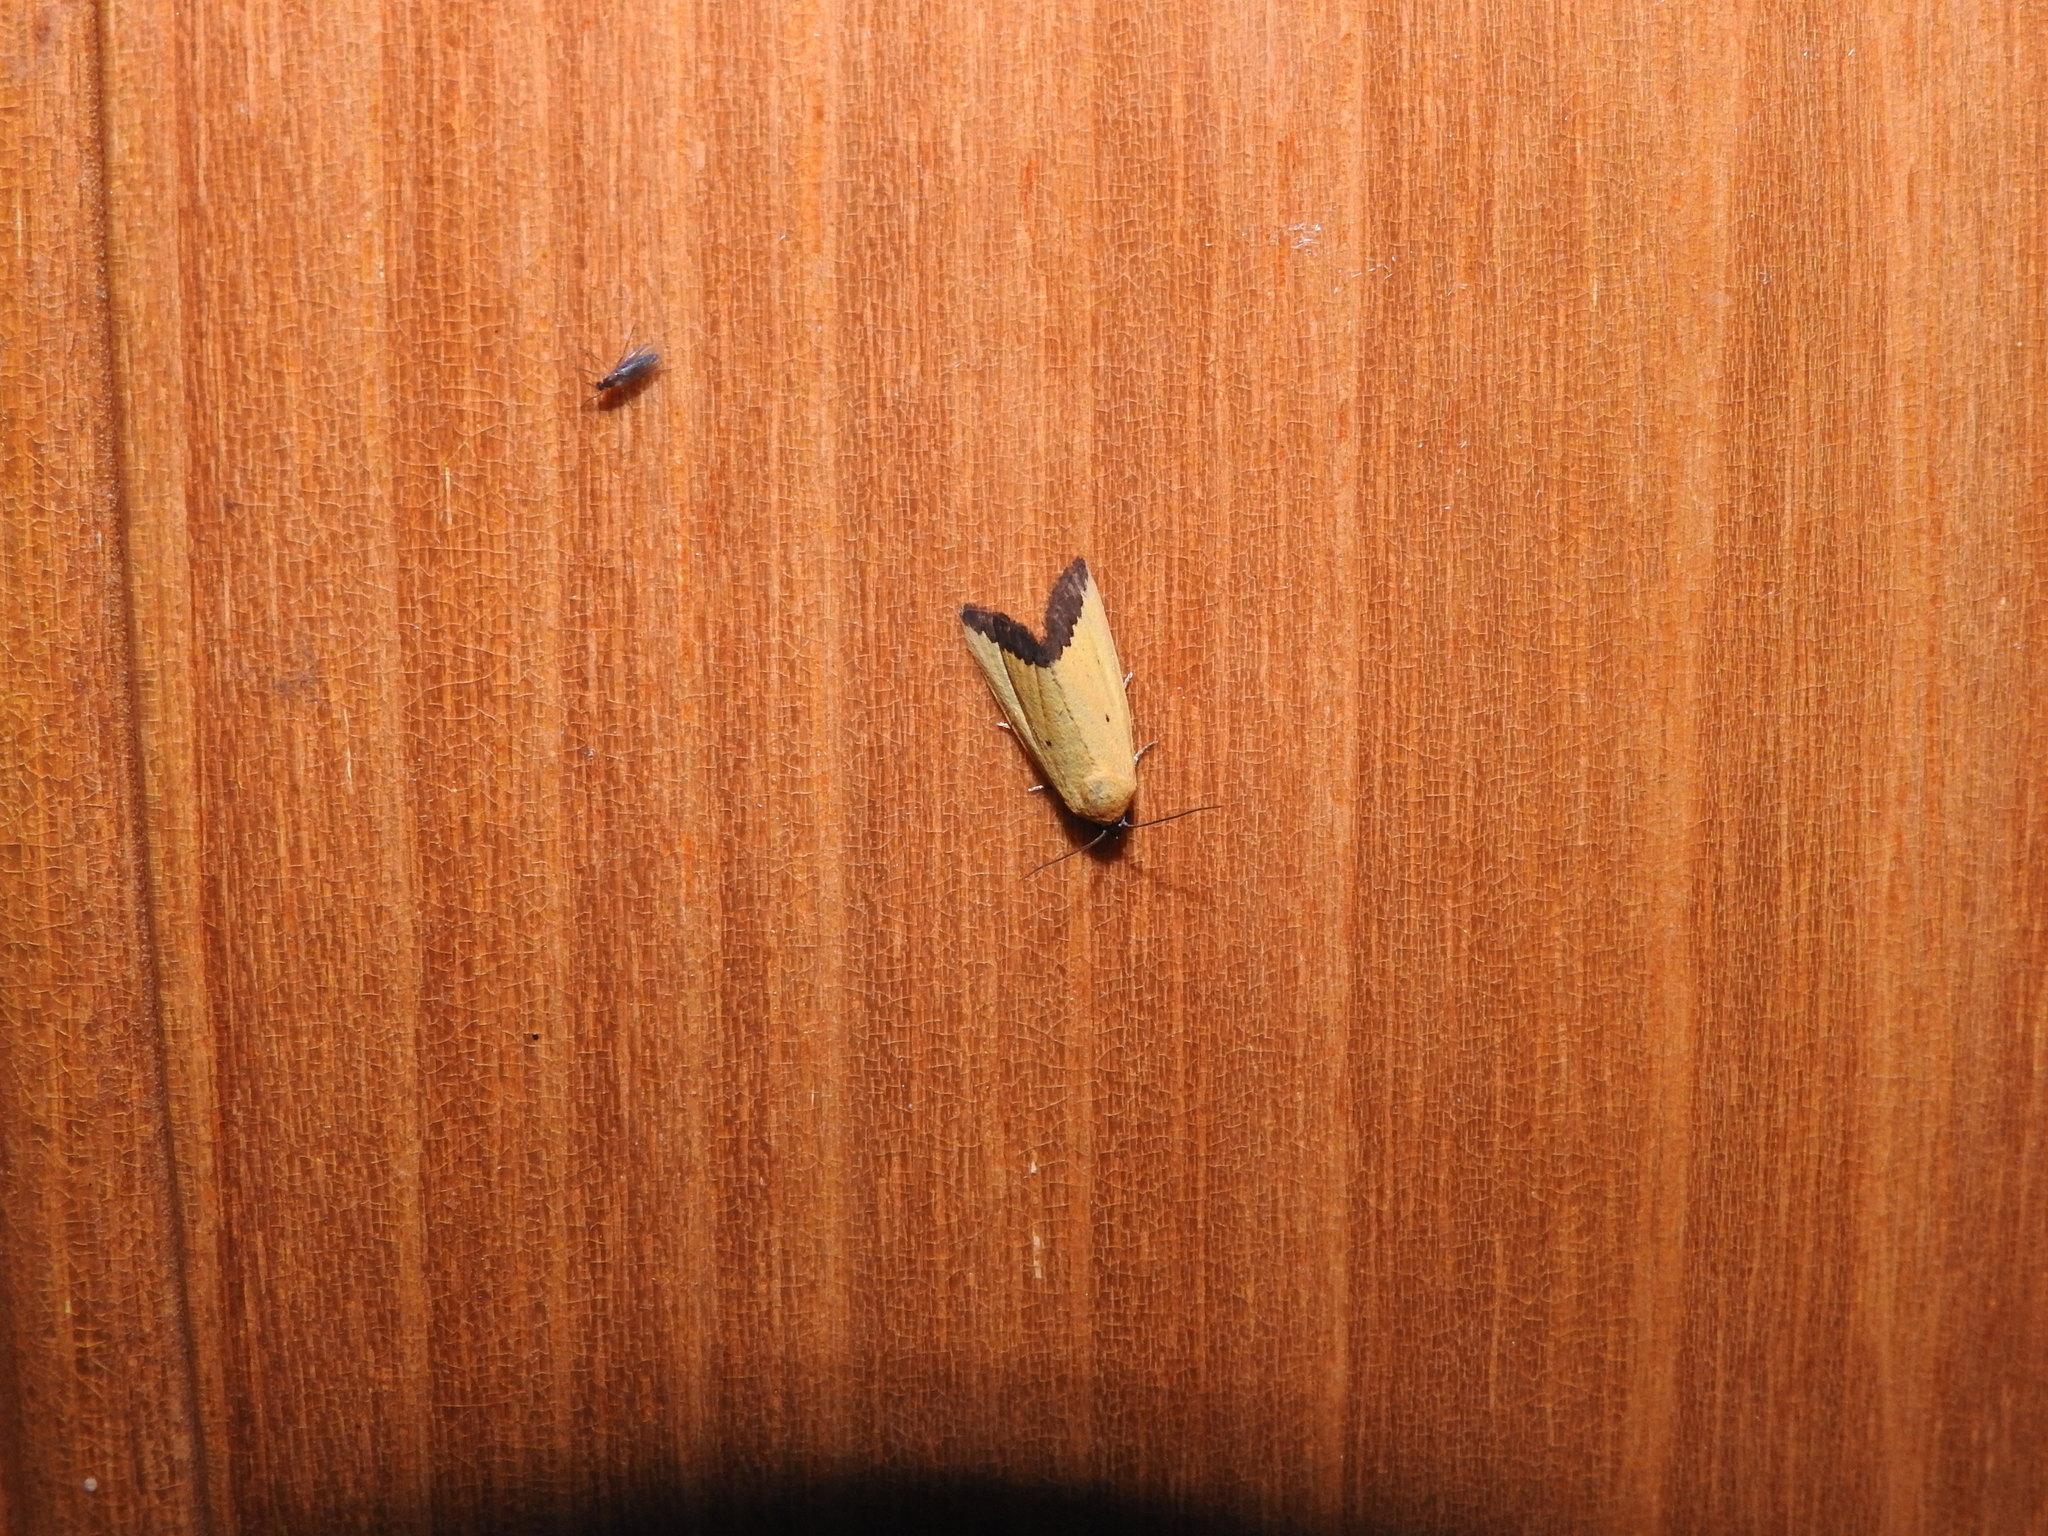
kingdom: Animalia
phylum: Arthropoda
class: Insecta
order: Lepidoptera
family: Noctuidae
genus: Eustrotia
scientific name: Eustrotia marginata
